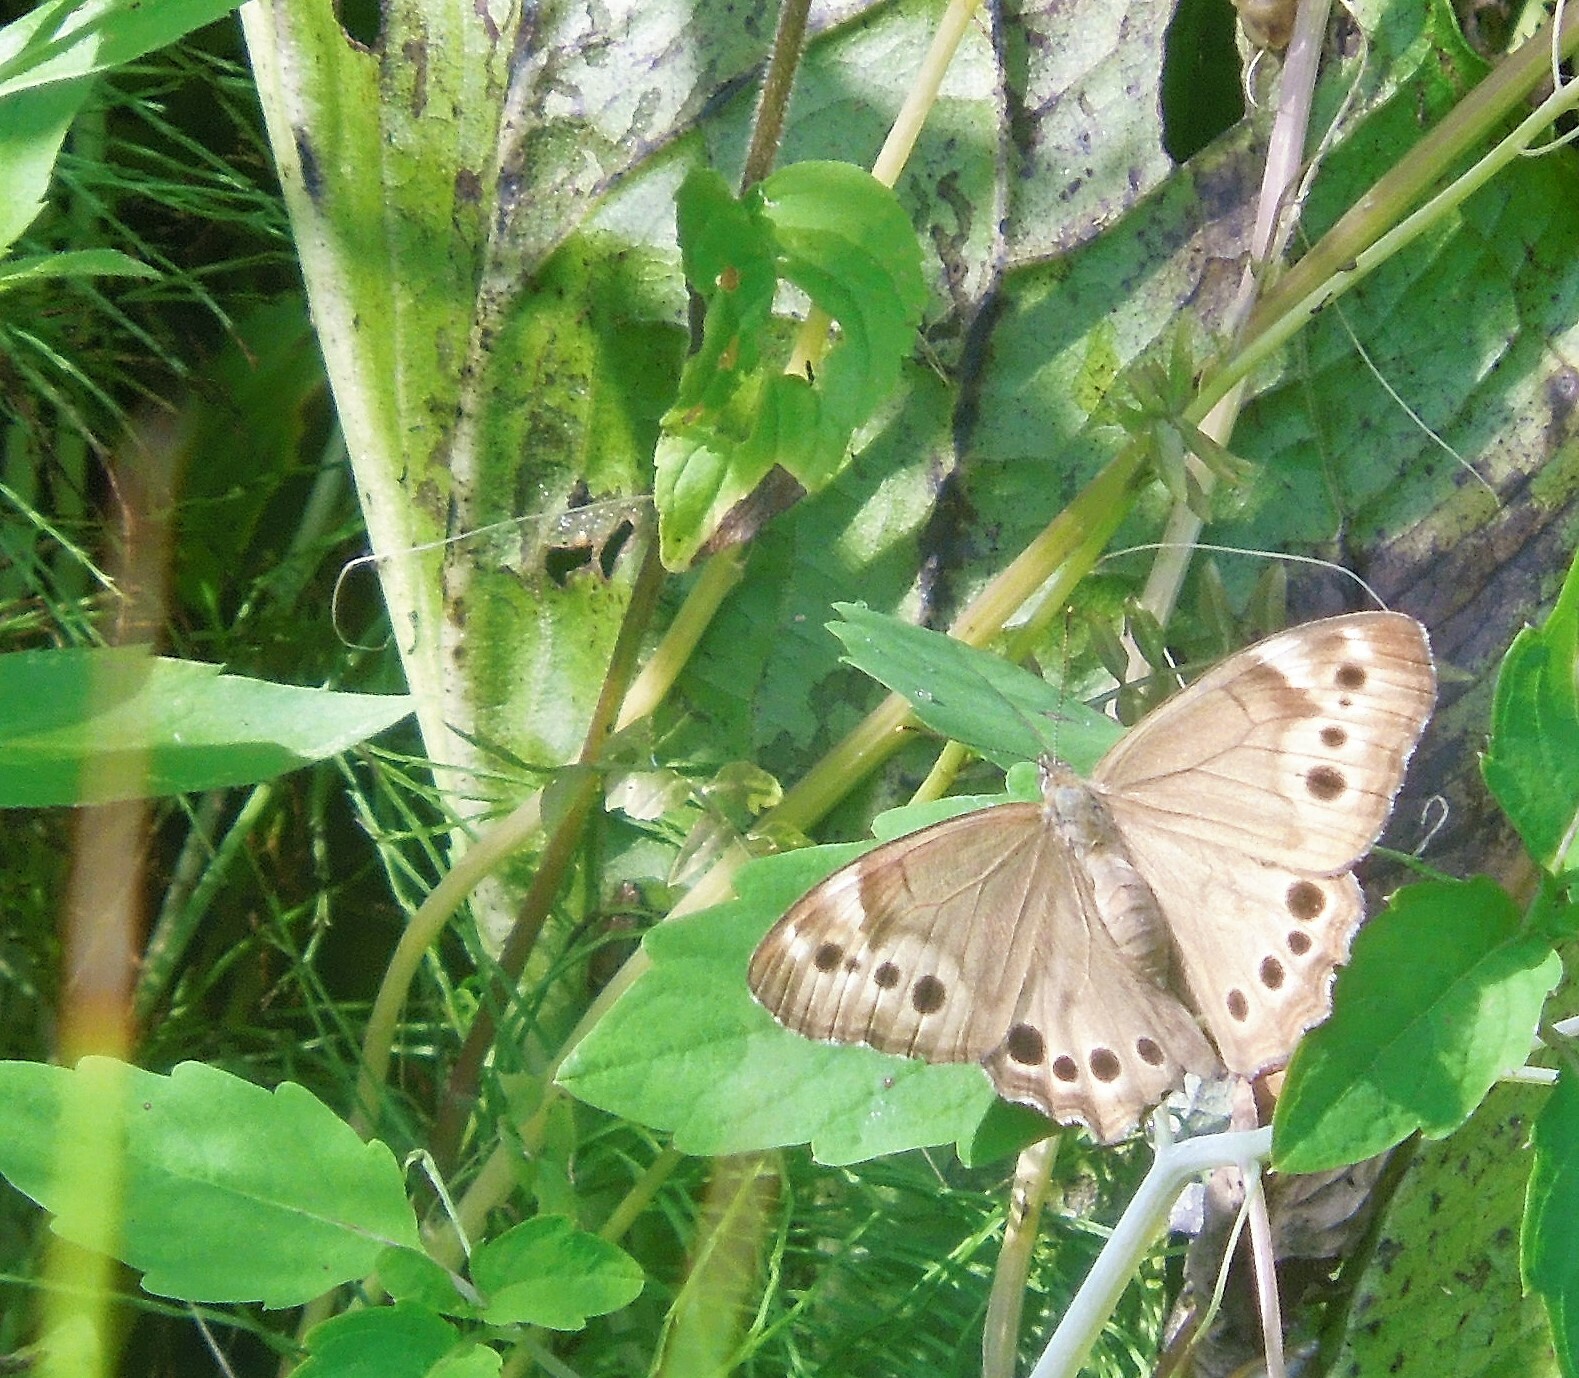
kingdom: Animalia
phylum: Arthropoda
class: Insecta
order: Lepidoptera
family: Nymphalidae
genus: Lethe
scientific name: Lethe anthedon
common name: Northern pearly-eye
